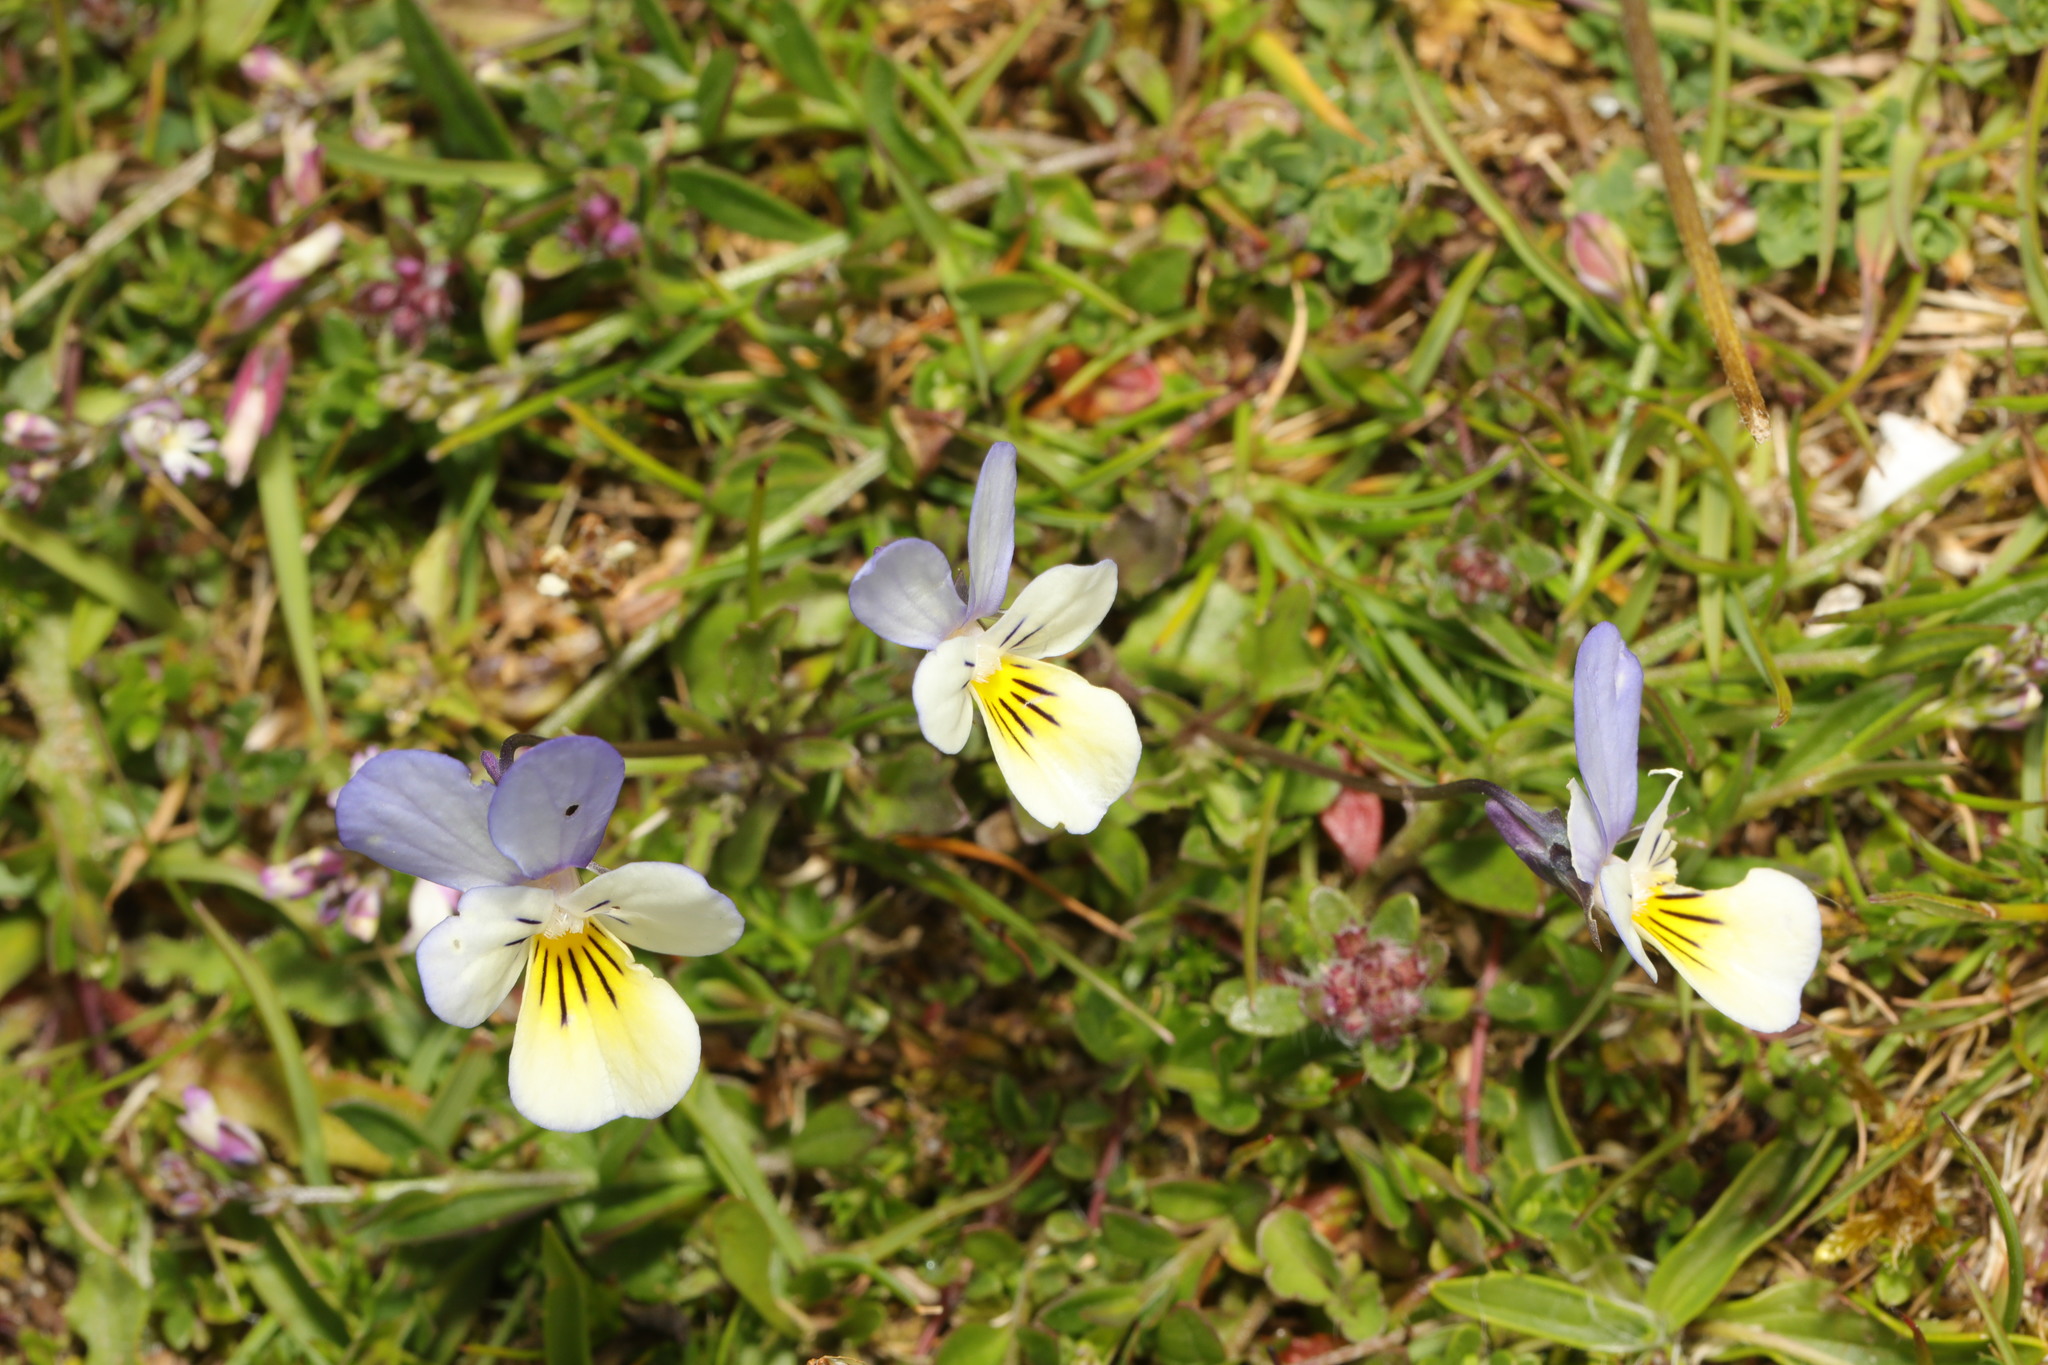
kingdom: Plantae
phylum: Tracheophyta
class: Magnoliopsida
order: Malpighiales
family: Violaceae
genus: Viola
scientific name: Viola tricolor
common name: Pansy
